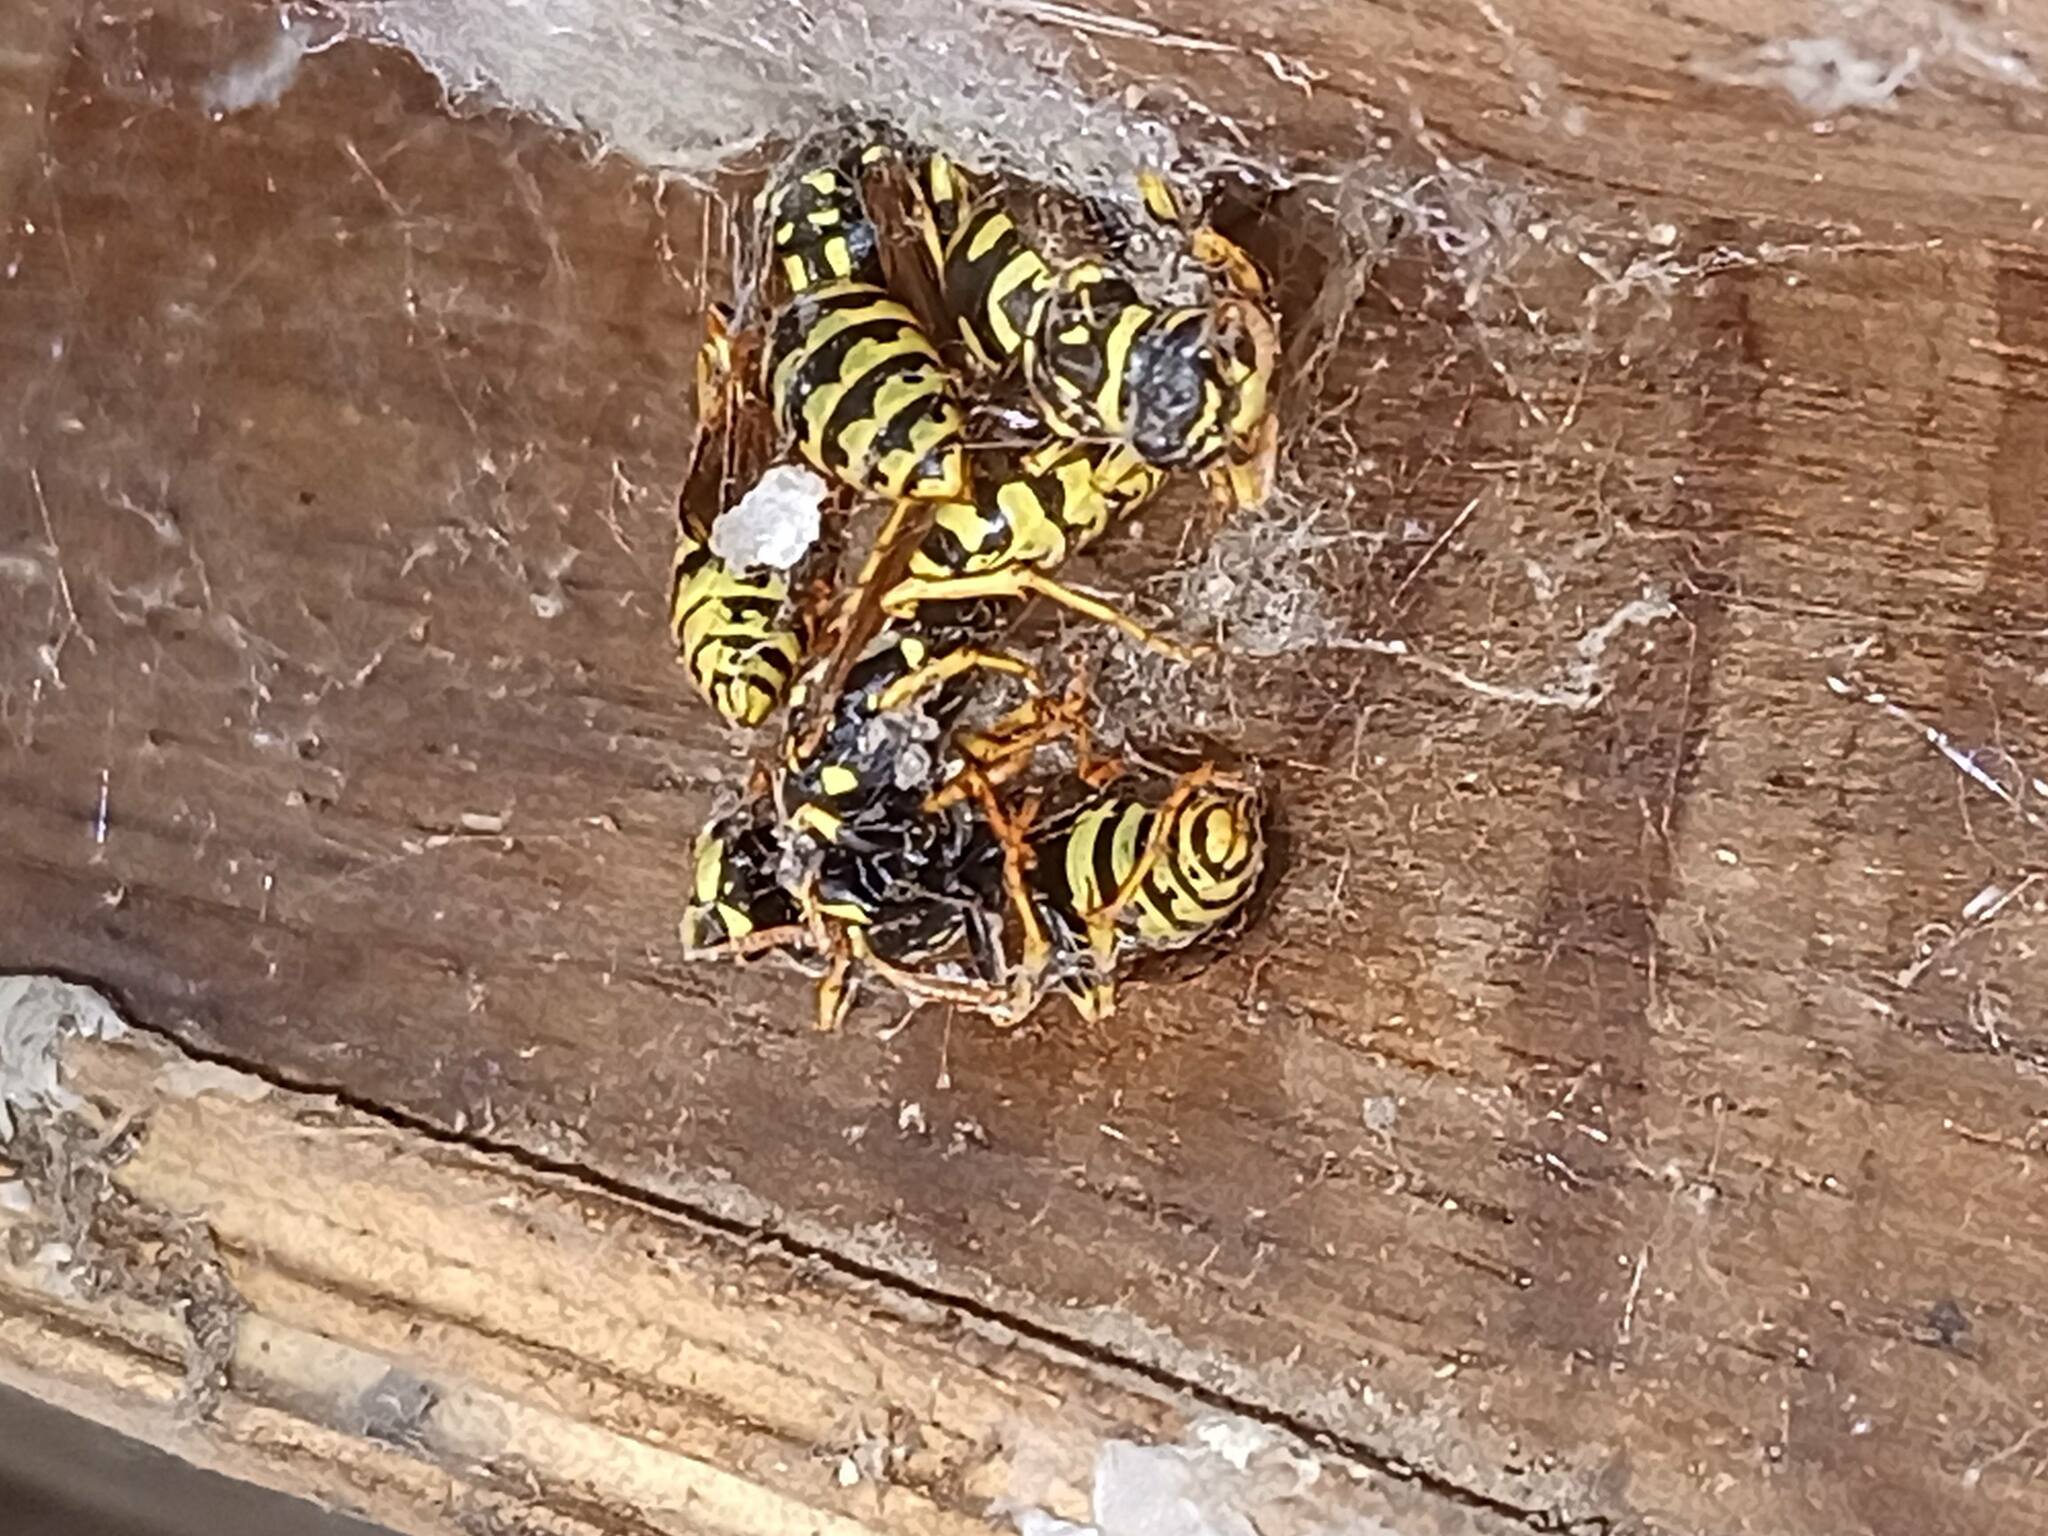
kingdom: Animalia
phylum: Arthropoda
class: Insecta
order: Hymenoptera
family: Eumenidae
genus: Polistes
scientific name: Polistes dominula
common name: Paper wasp
